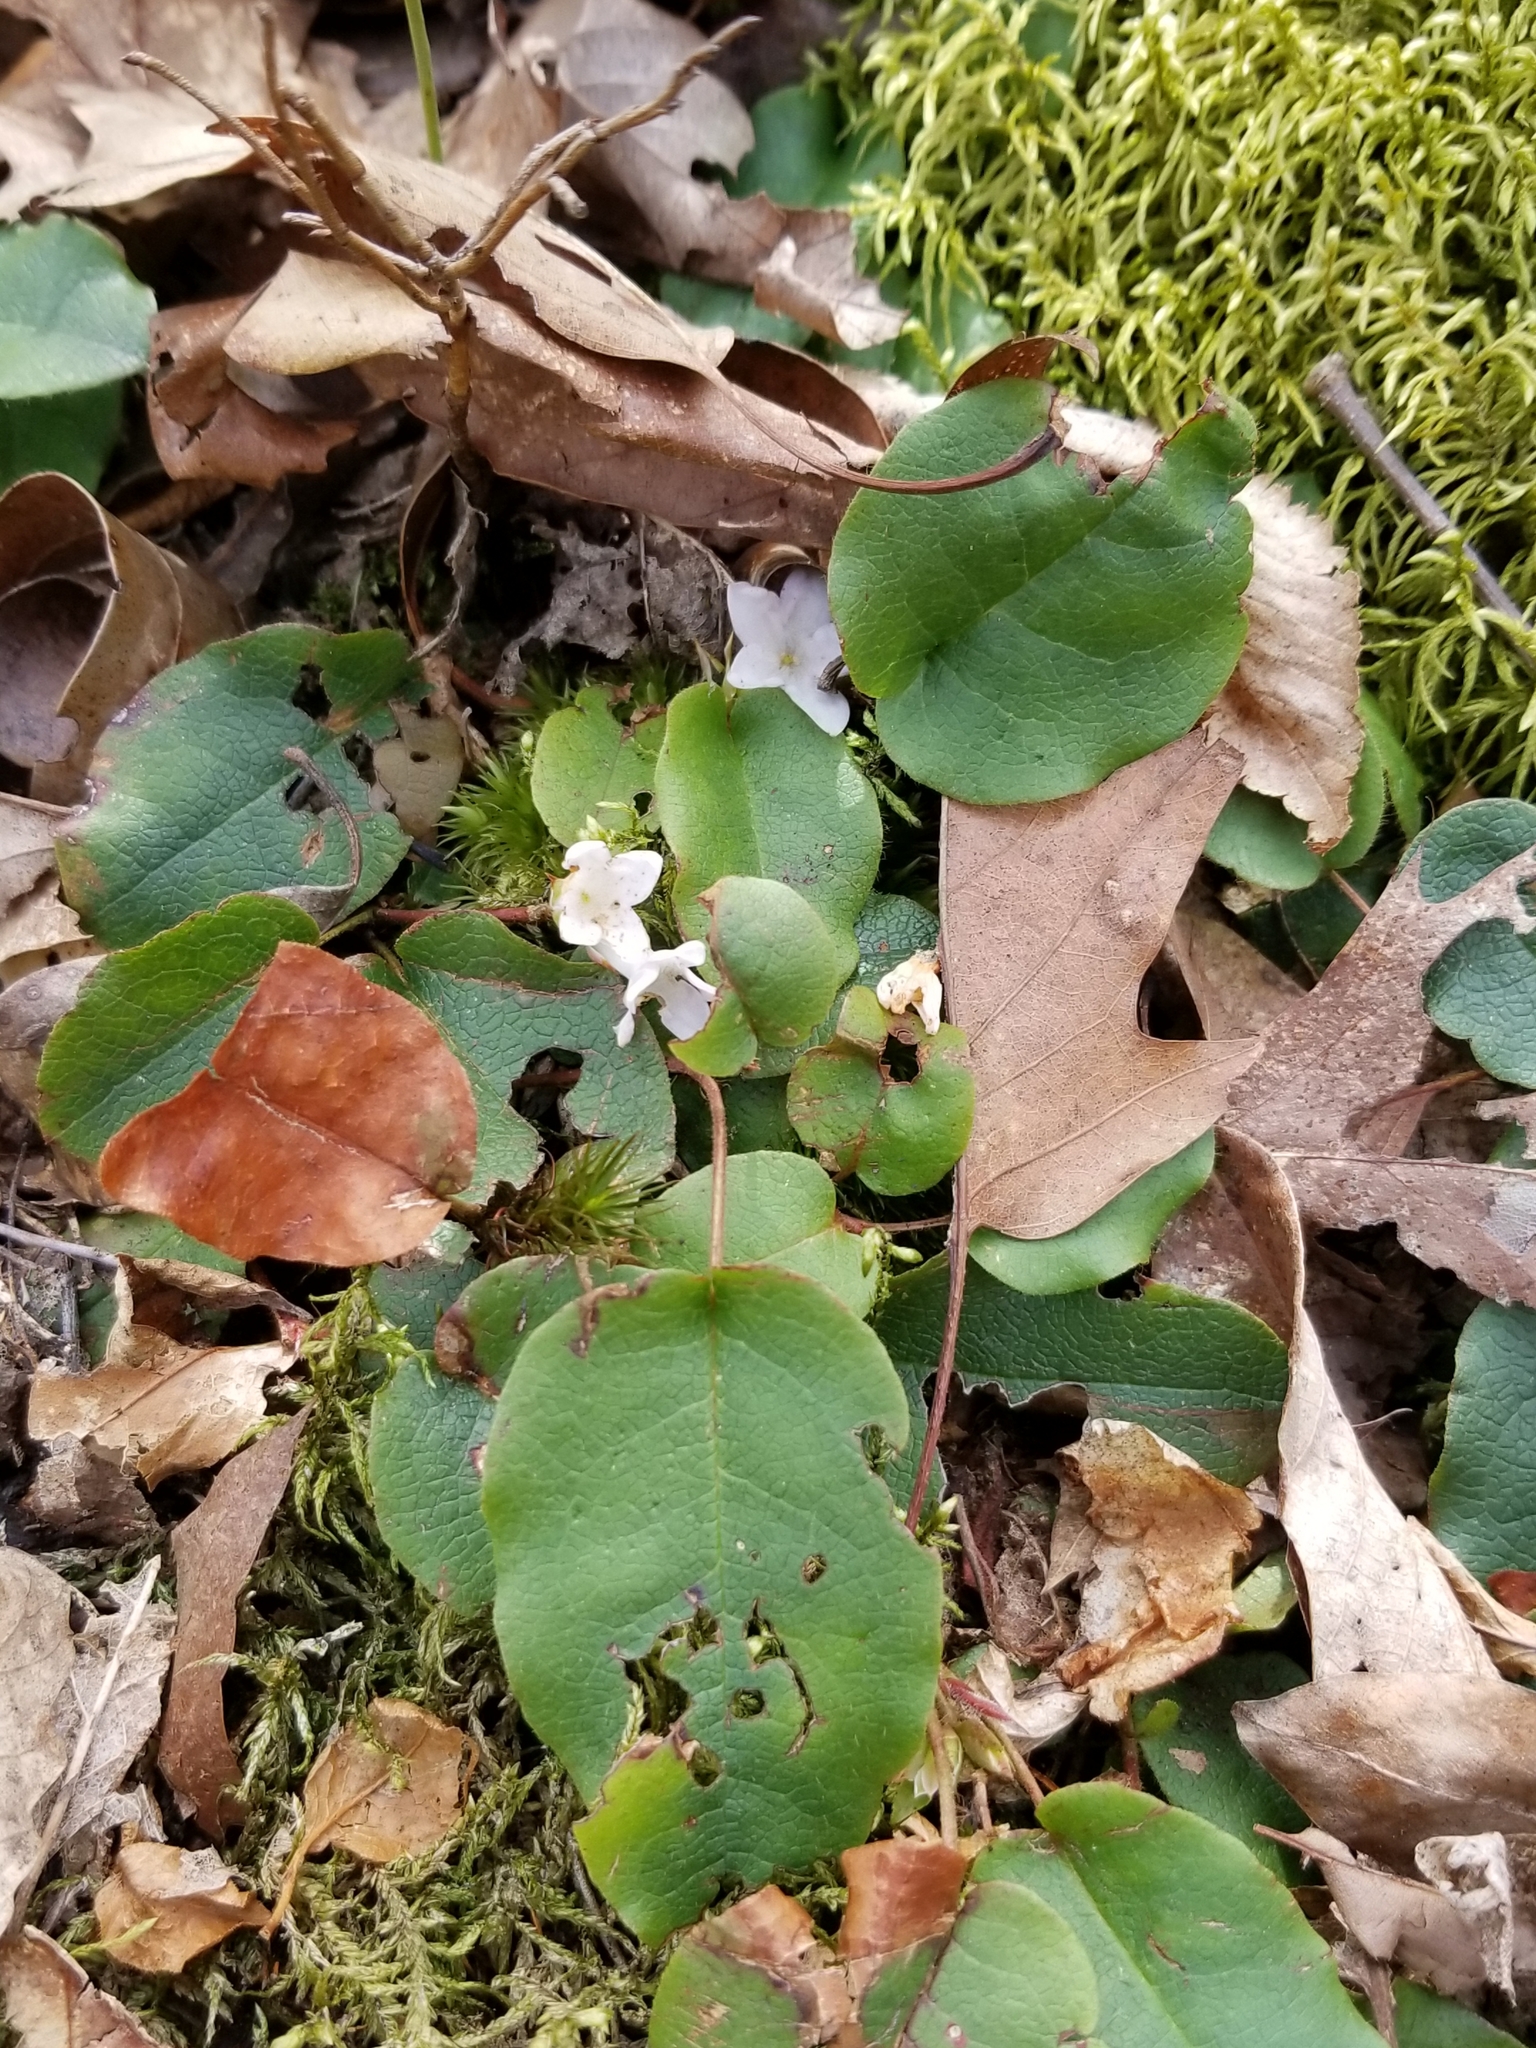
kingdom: Plantae
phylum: Tracheophyta
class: Magnoliopsida
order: Ericales
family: Ericaceae
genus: Epigaea
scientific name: Epigaea repens
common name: Gravelroot
